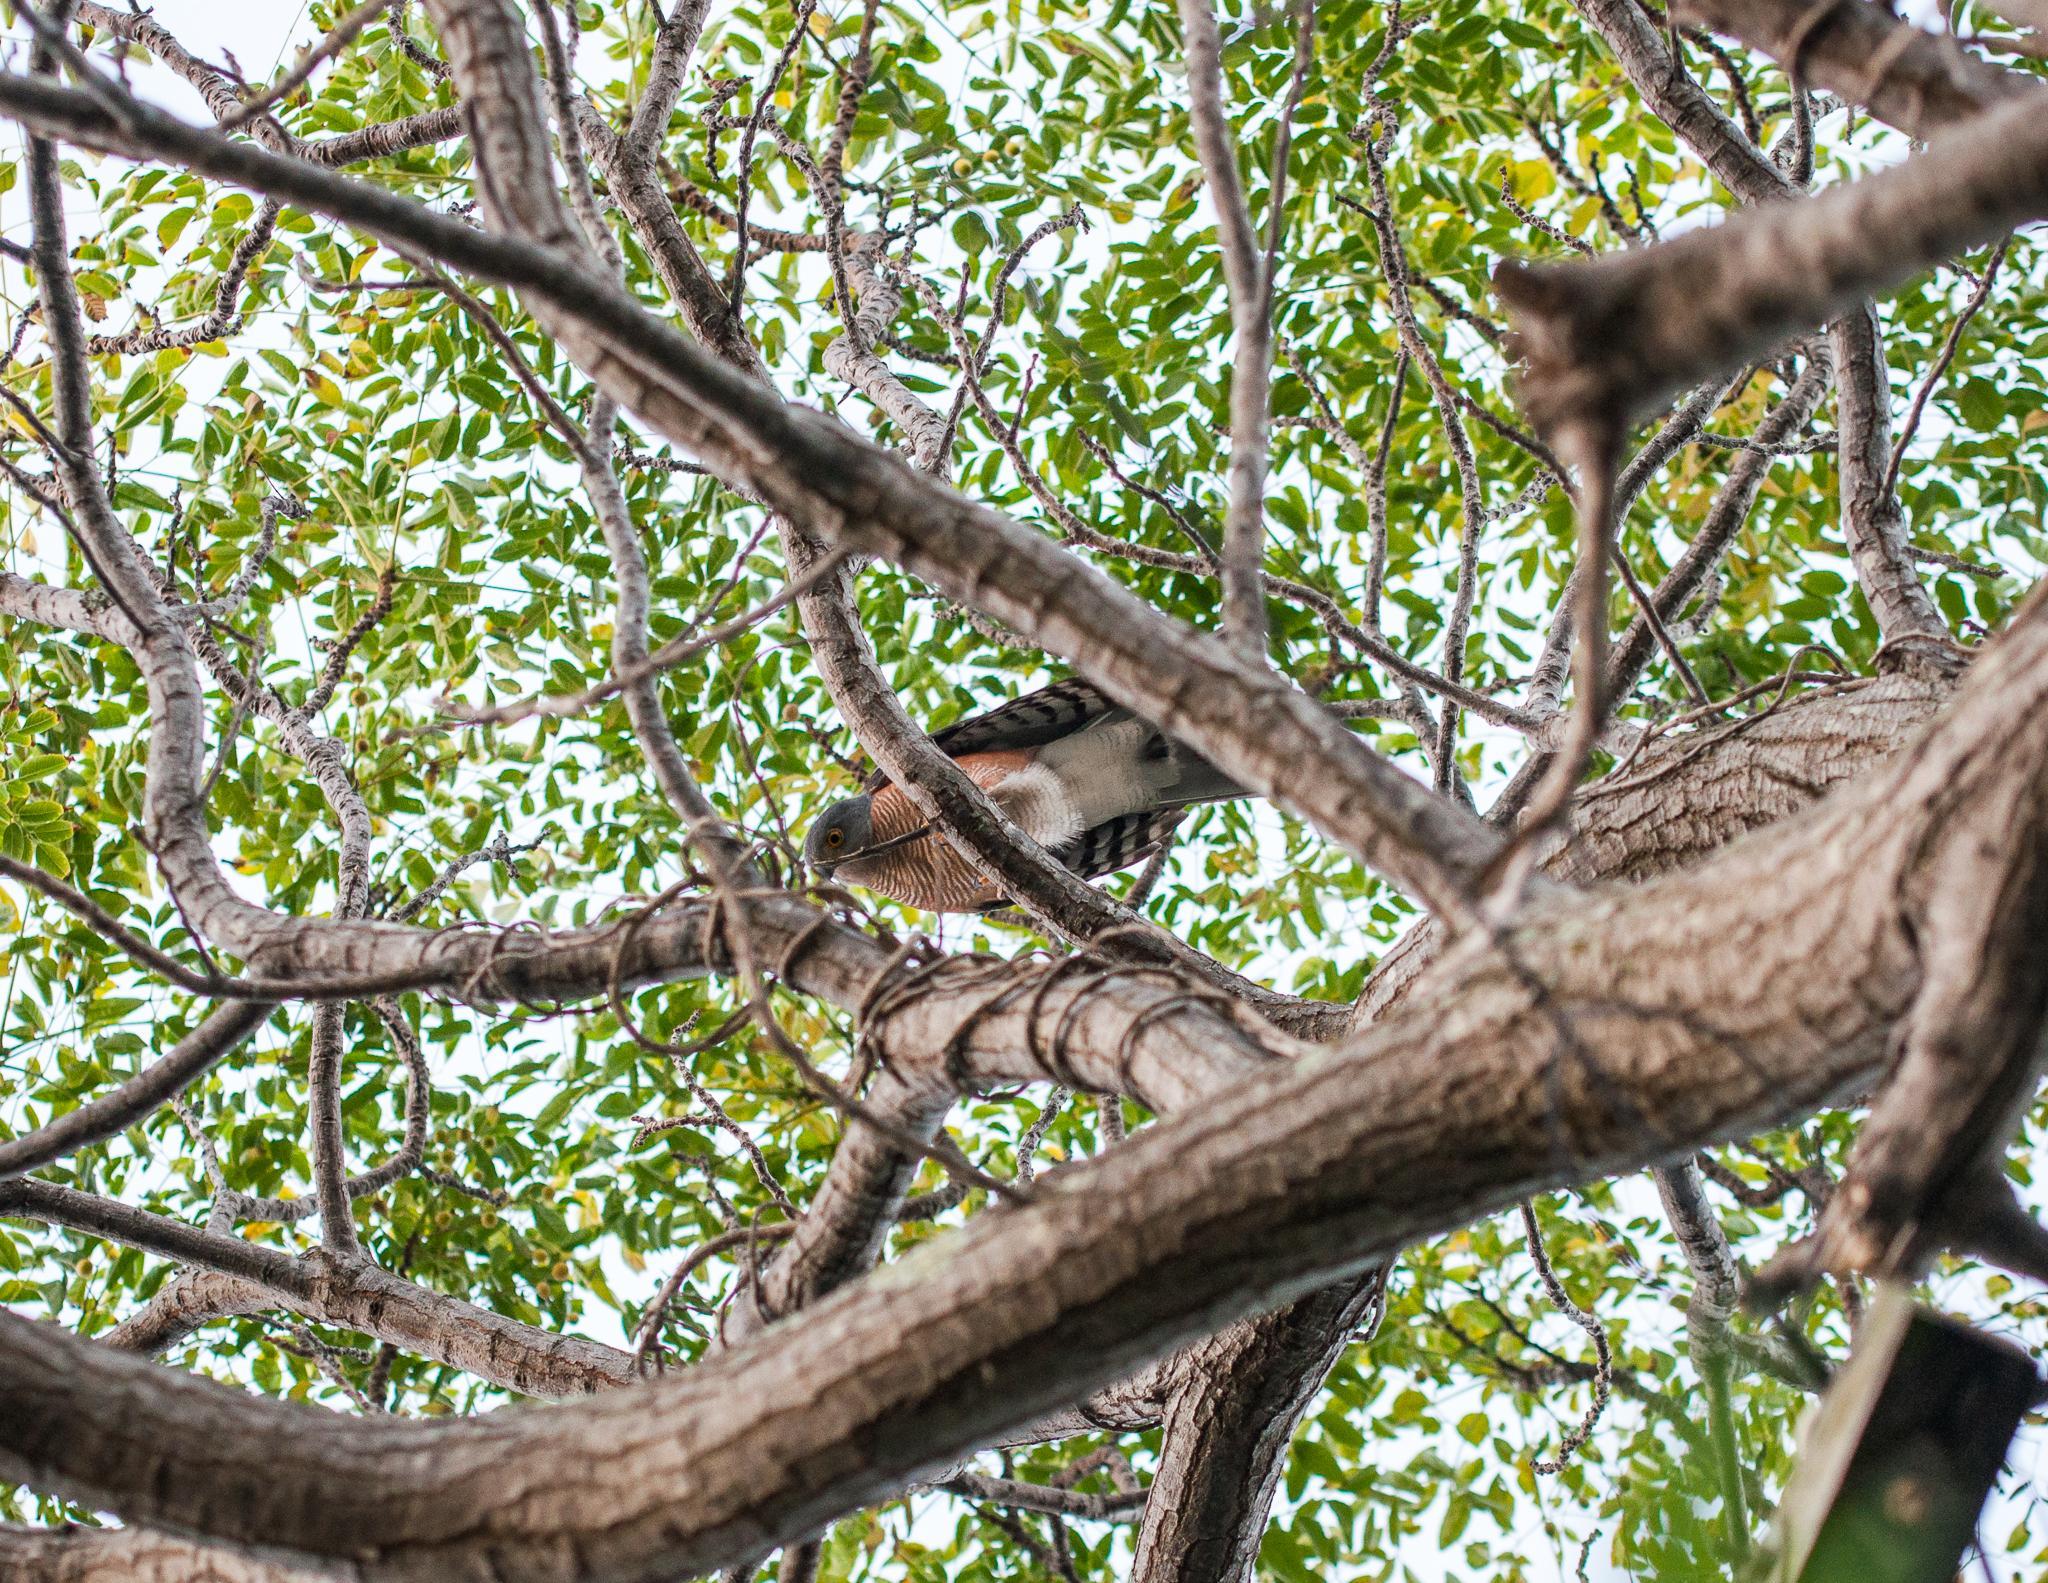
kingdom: Animalia
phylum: Chordata
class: Aves
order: Accipitriformes
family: Accipitridae
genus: Accipiter
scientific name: Accipiter tachiro
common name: African goshawk
